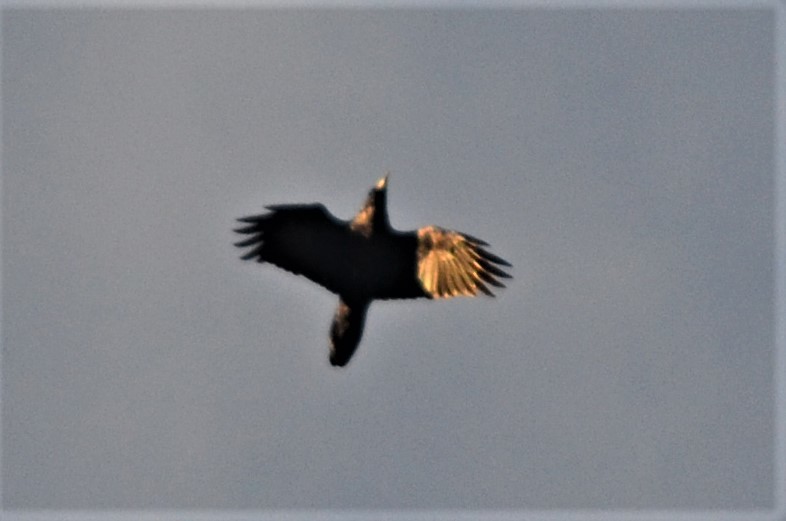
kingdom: Animalia
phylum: Chordata
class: Aves
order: Passeriformes
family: Corvidae
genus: Corvus
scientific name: Corvus corax
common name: Common raven
